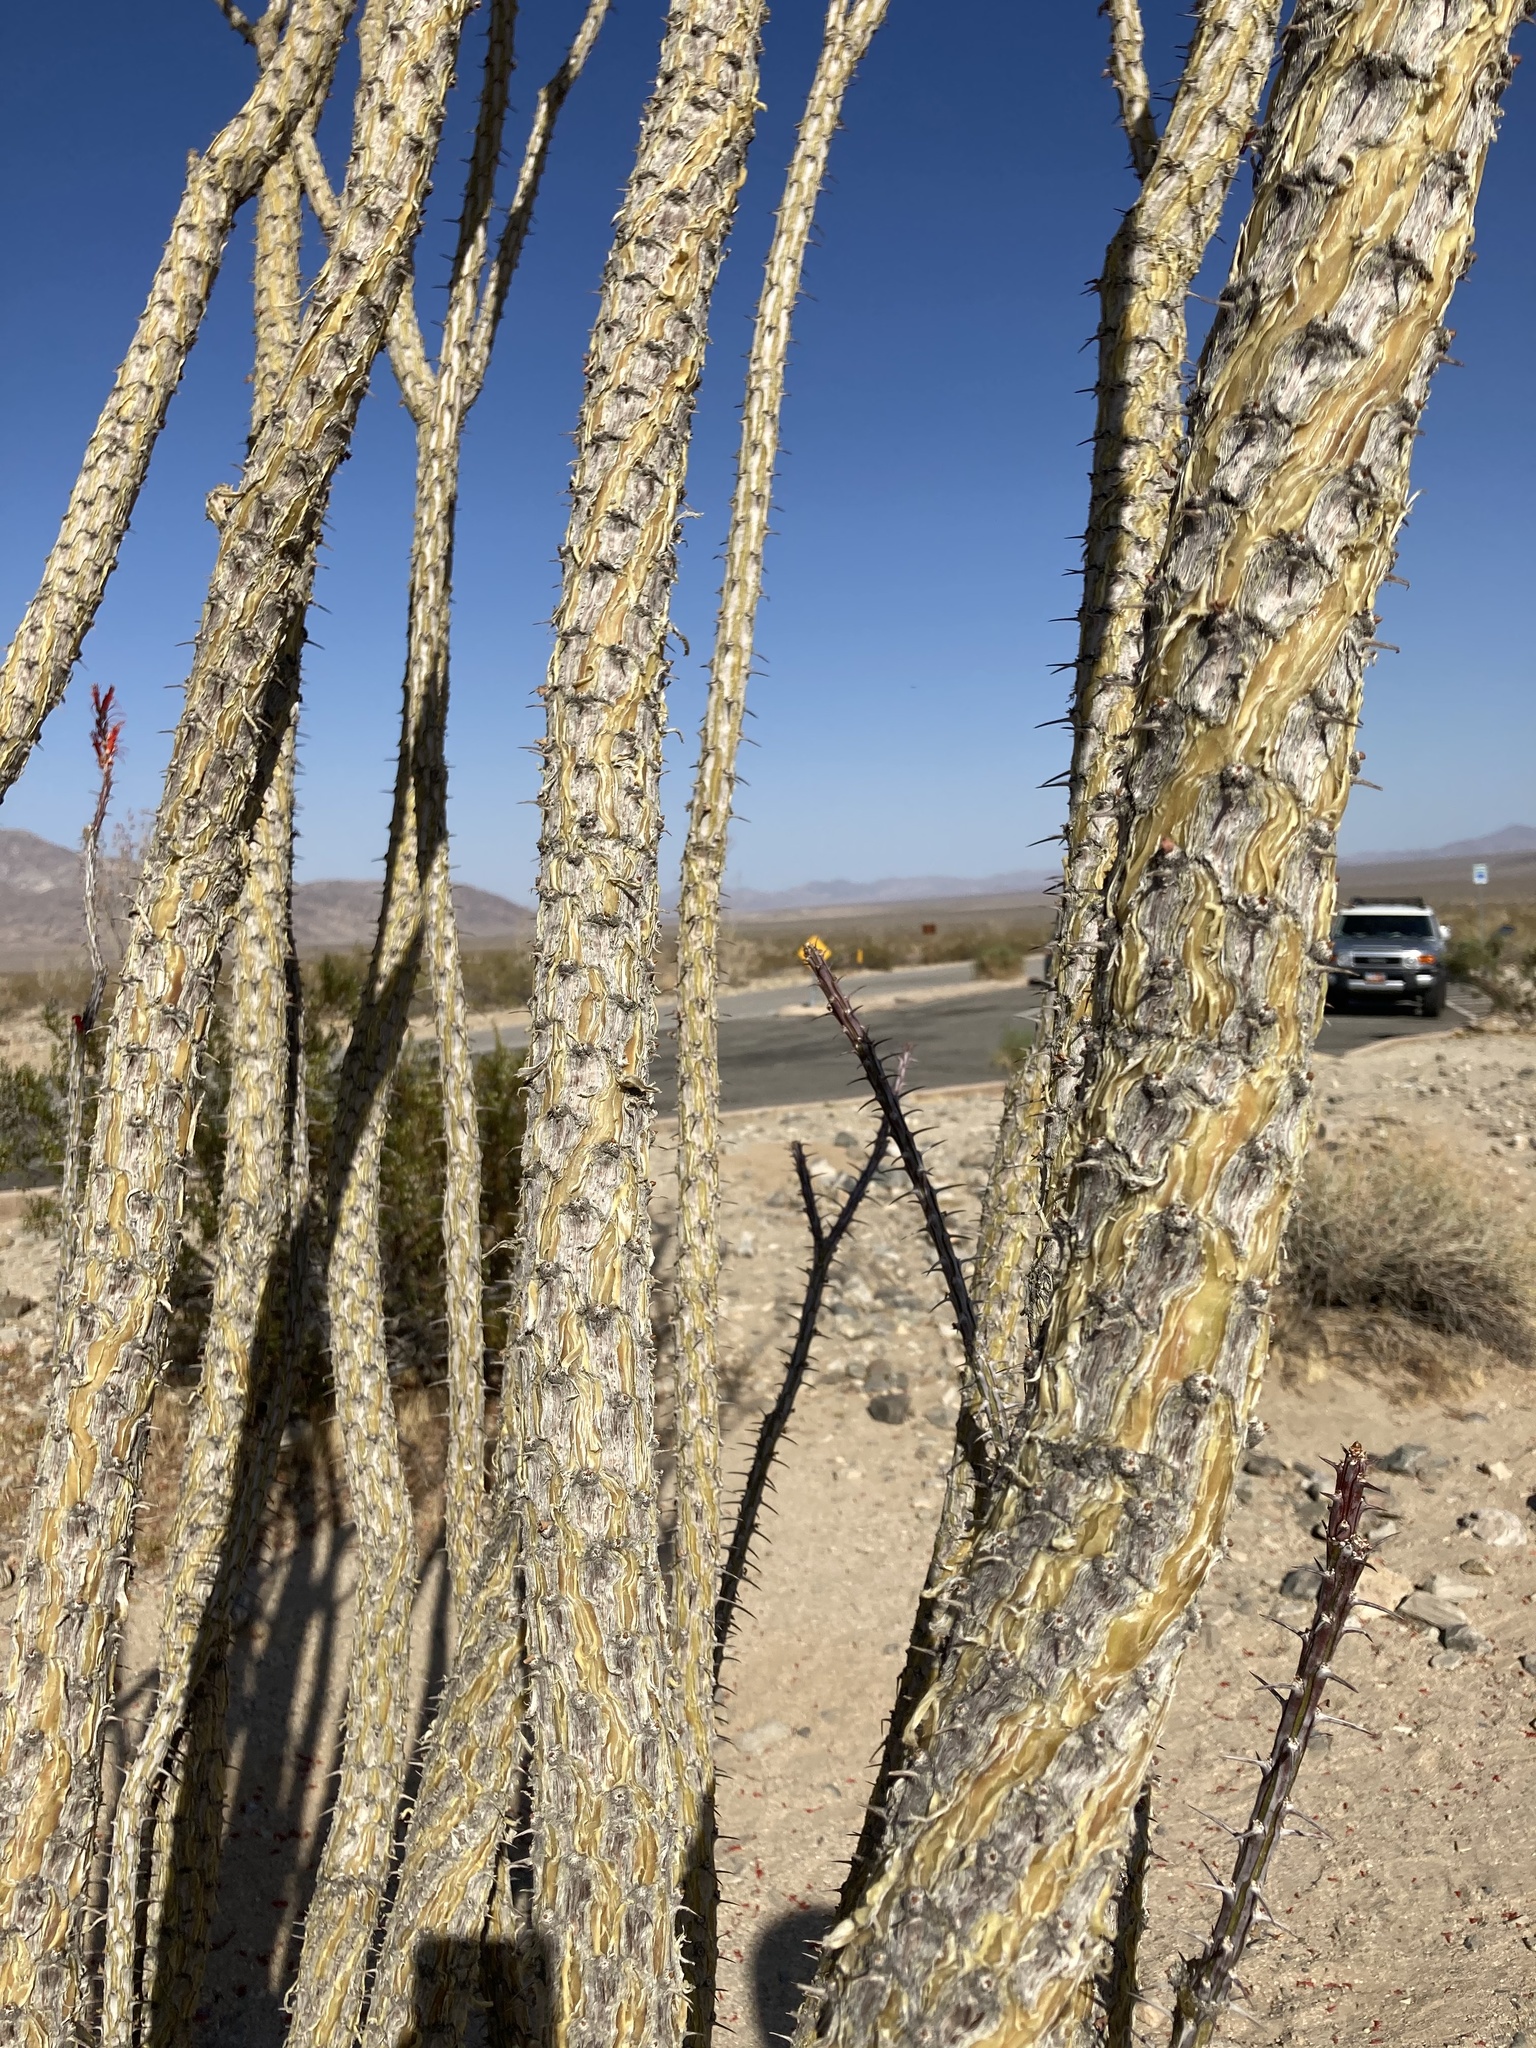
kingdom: Plantae
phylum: Tracheophyta
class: Magnoliopsida
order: Ericales
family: Fouquieriaceae
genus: Fouquieria
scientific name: Fouquieria splendens
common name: Vine-cactus
